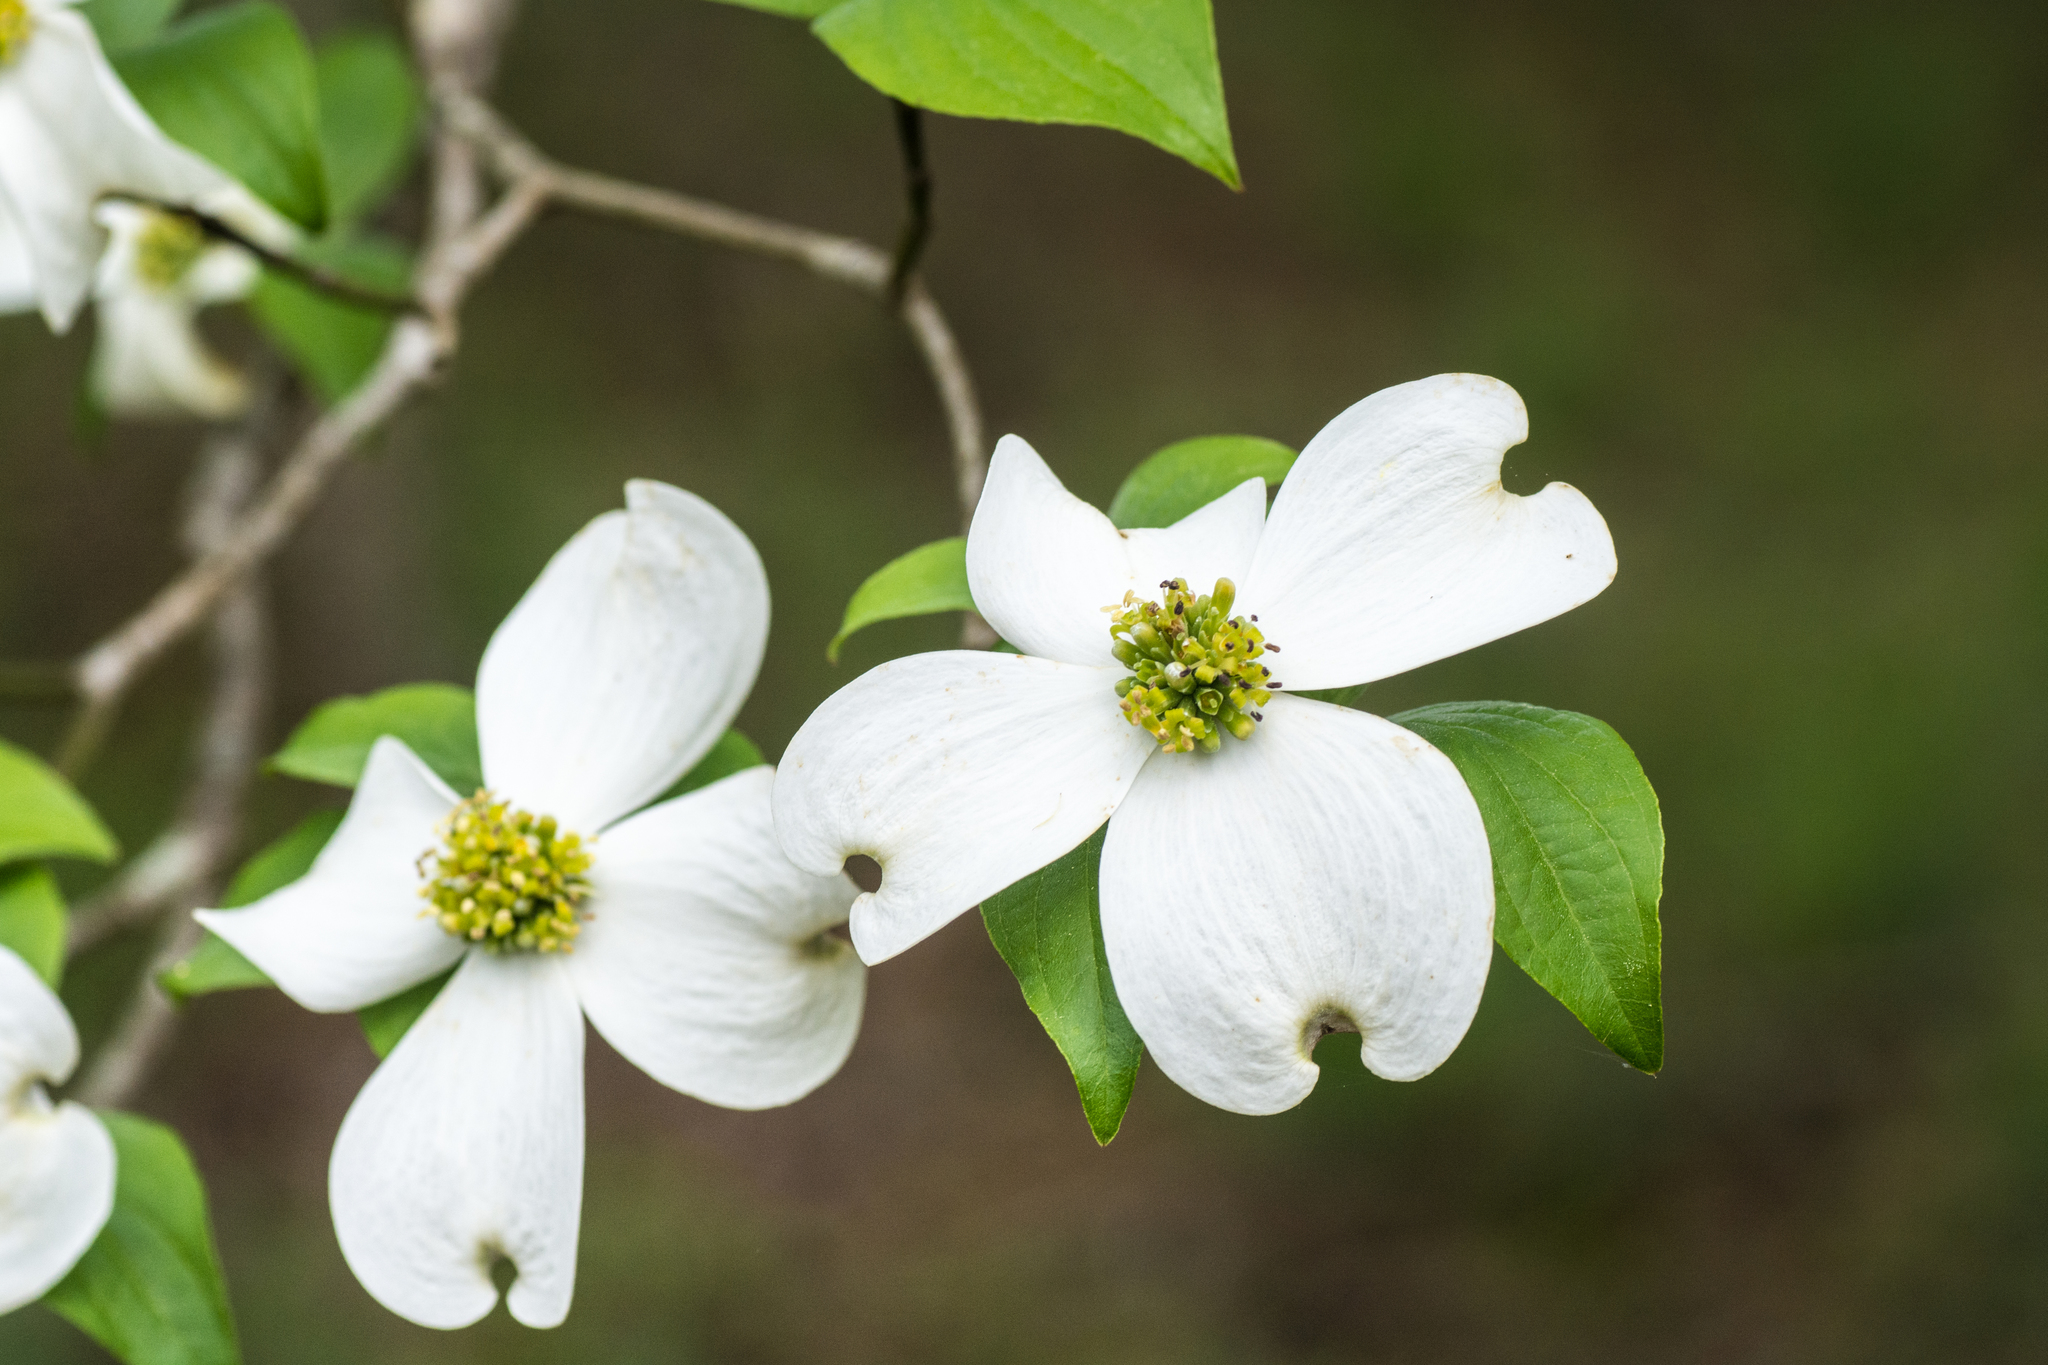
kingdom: Plantae
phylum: Tracheophyta
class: Magnoliopsida
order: Cornales
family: Cornaceae
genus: Cornus
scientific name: Cornus florida
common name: Flowering dogwood
